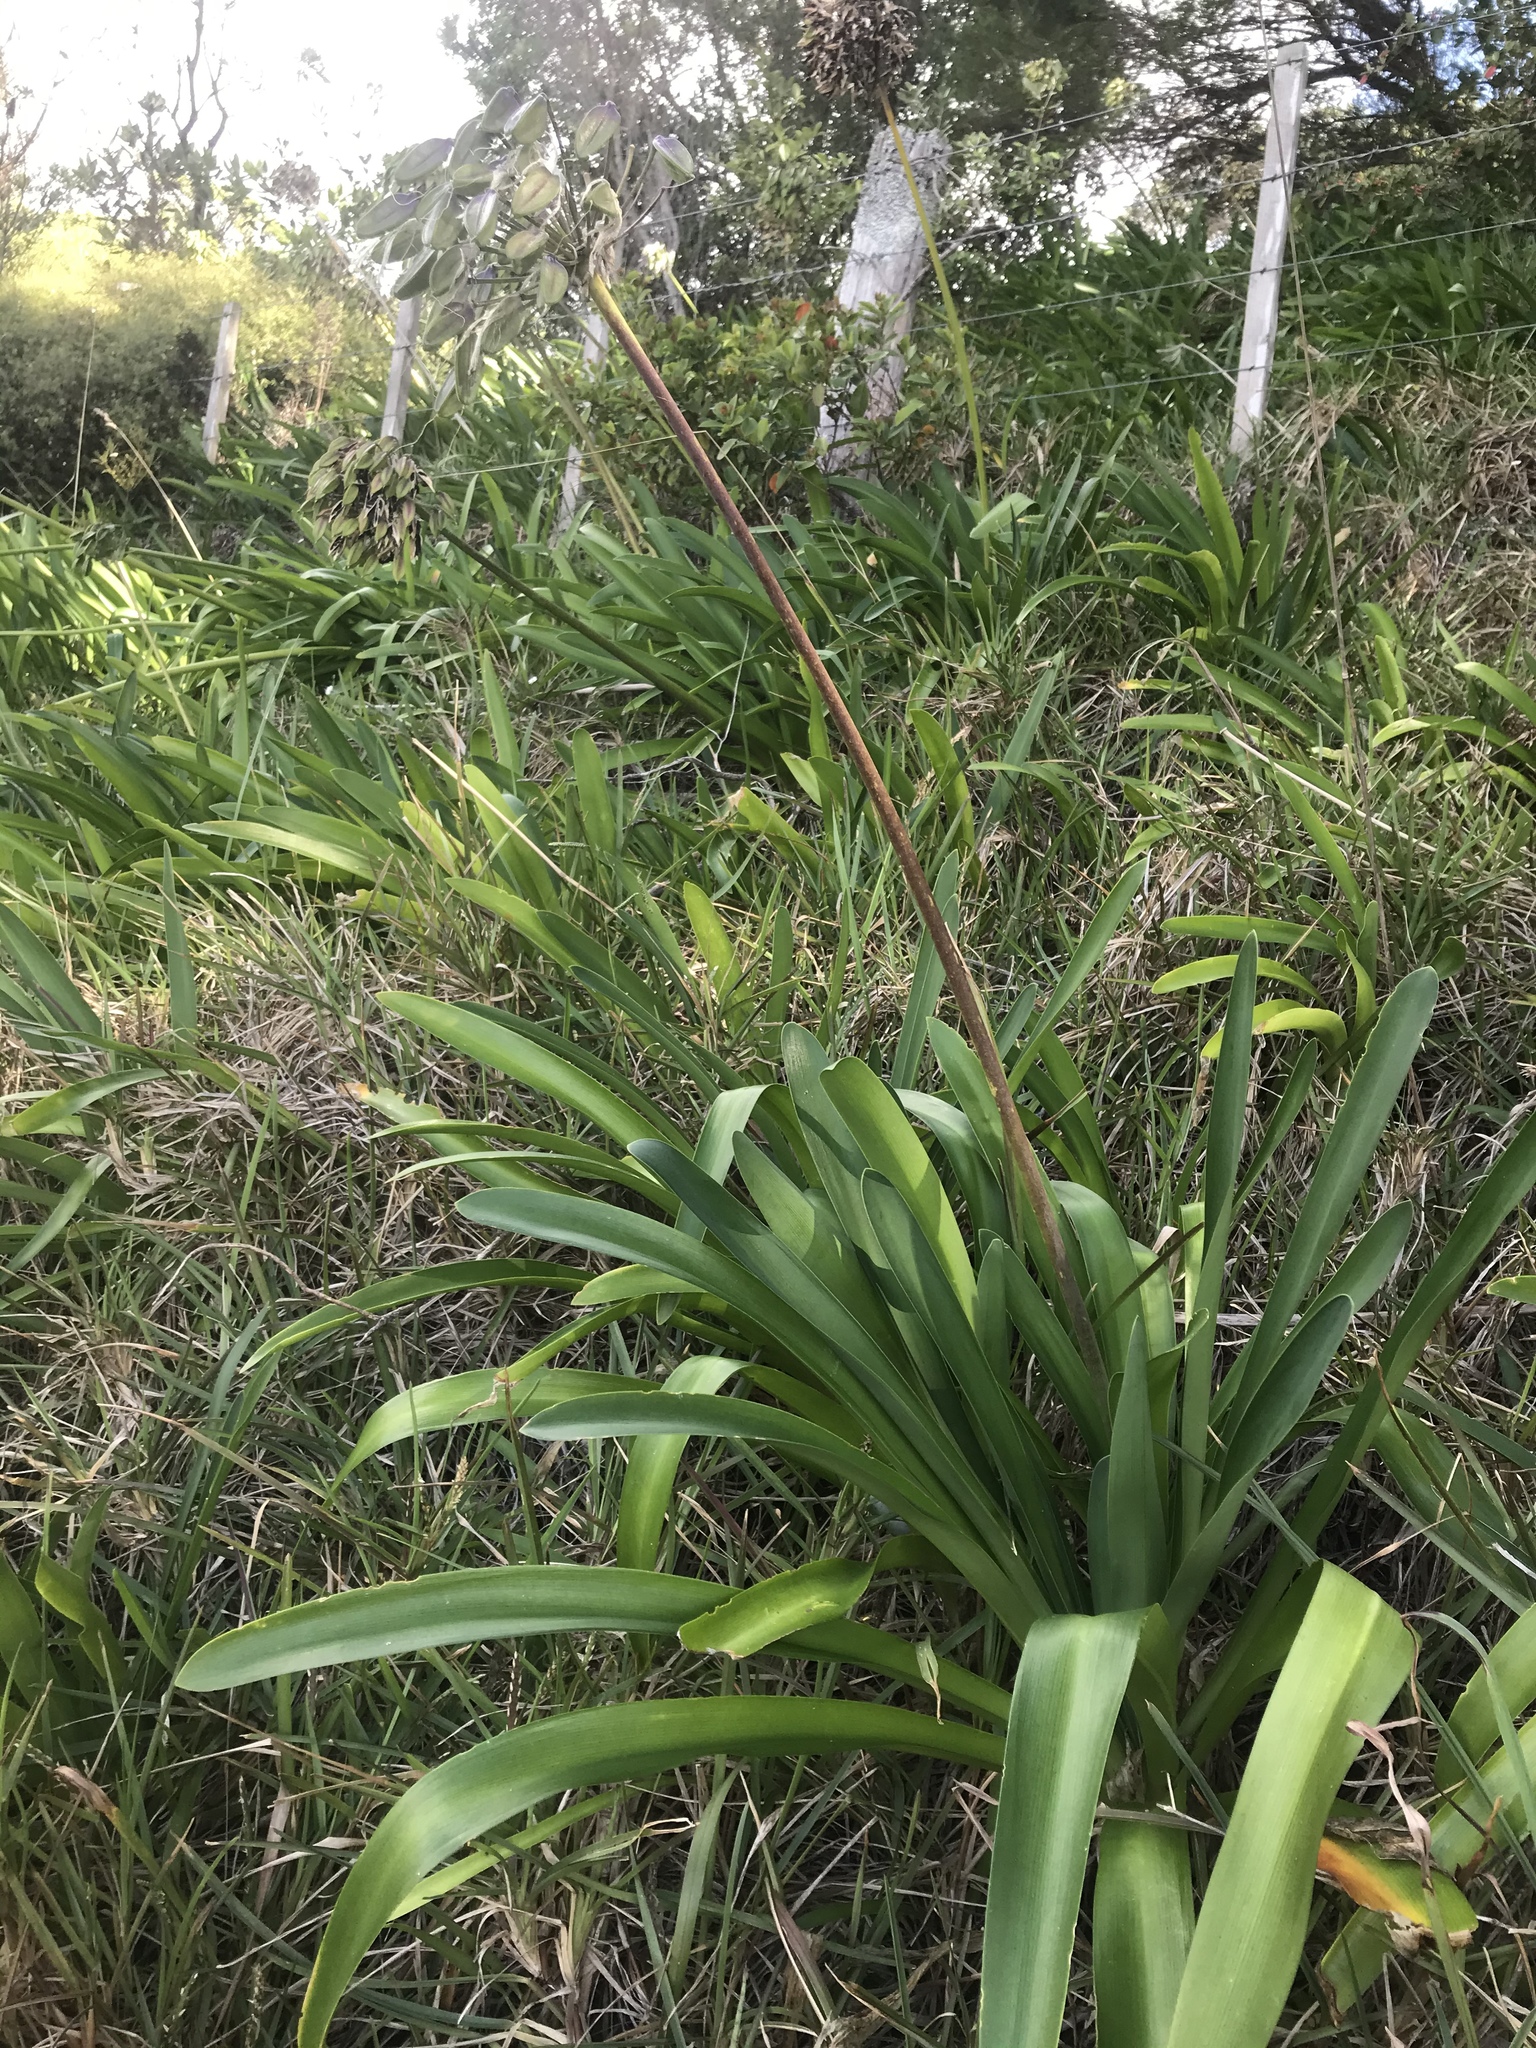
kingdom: Plantae
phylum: Tracheophyta
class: Liliopsida
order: Asparagales
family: Amaryllidaceae
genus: Agapanthus
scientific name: Agapanthus praecox
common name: African-lily
